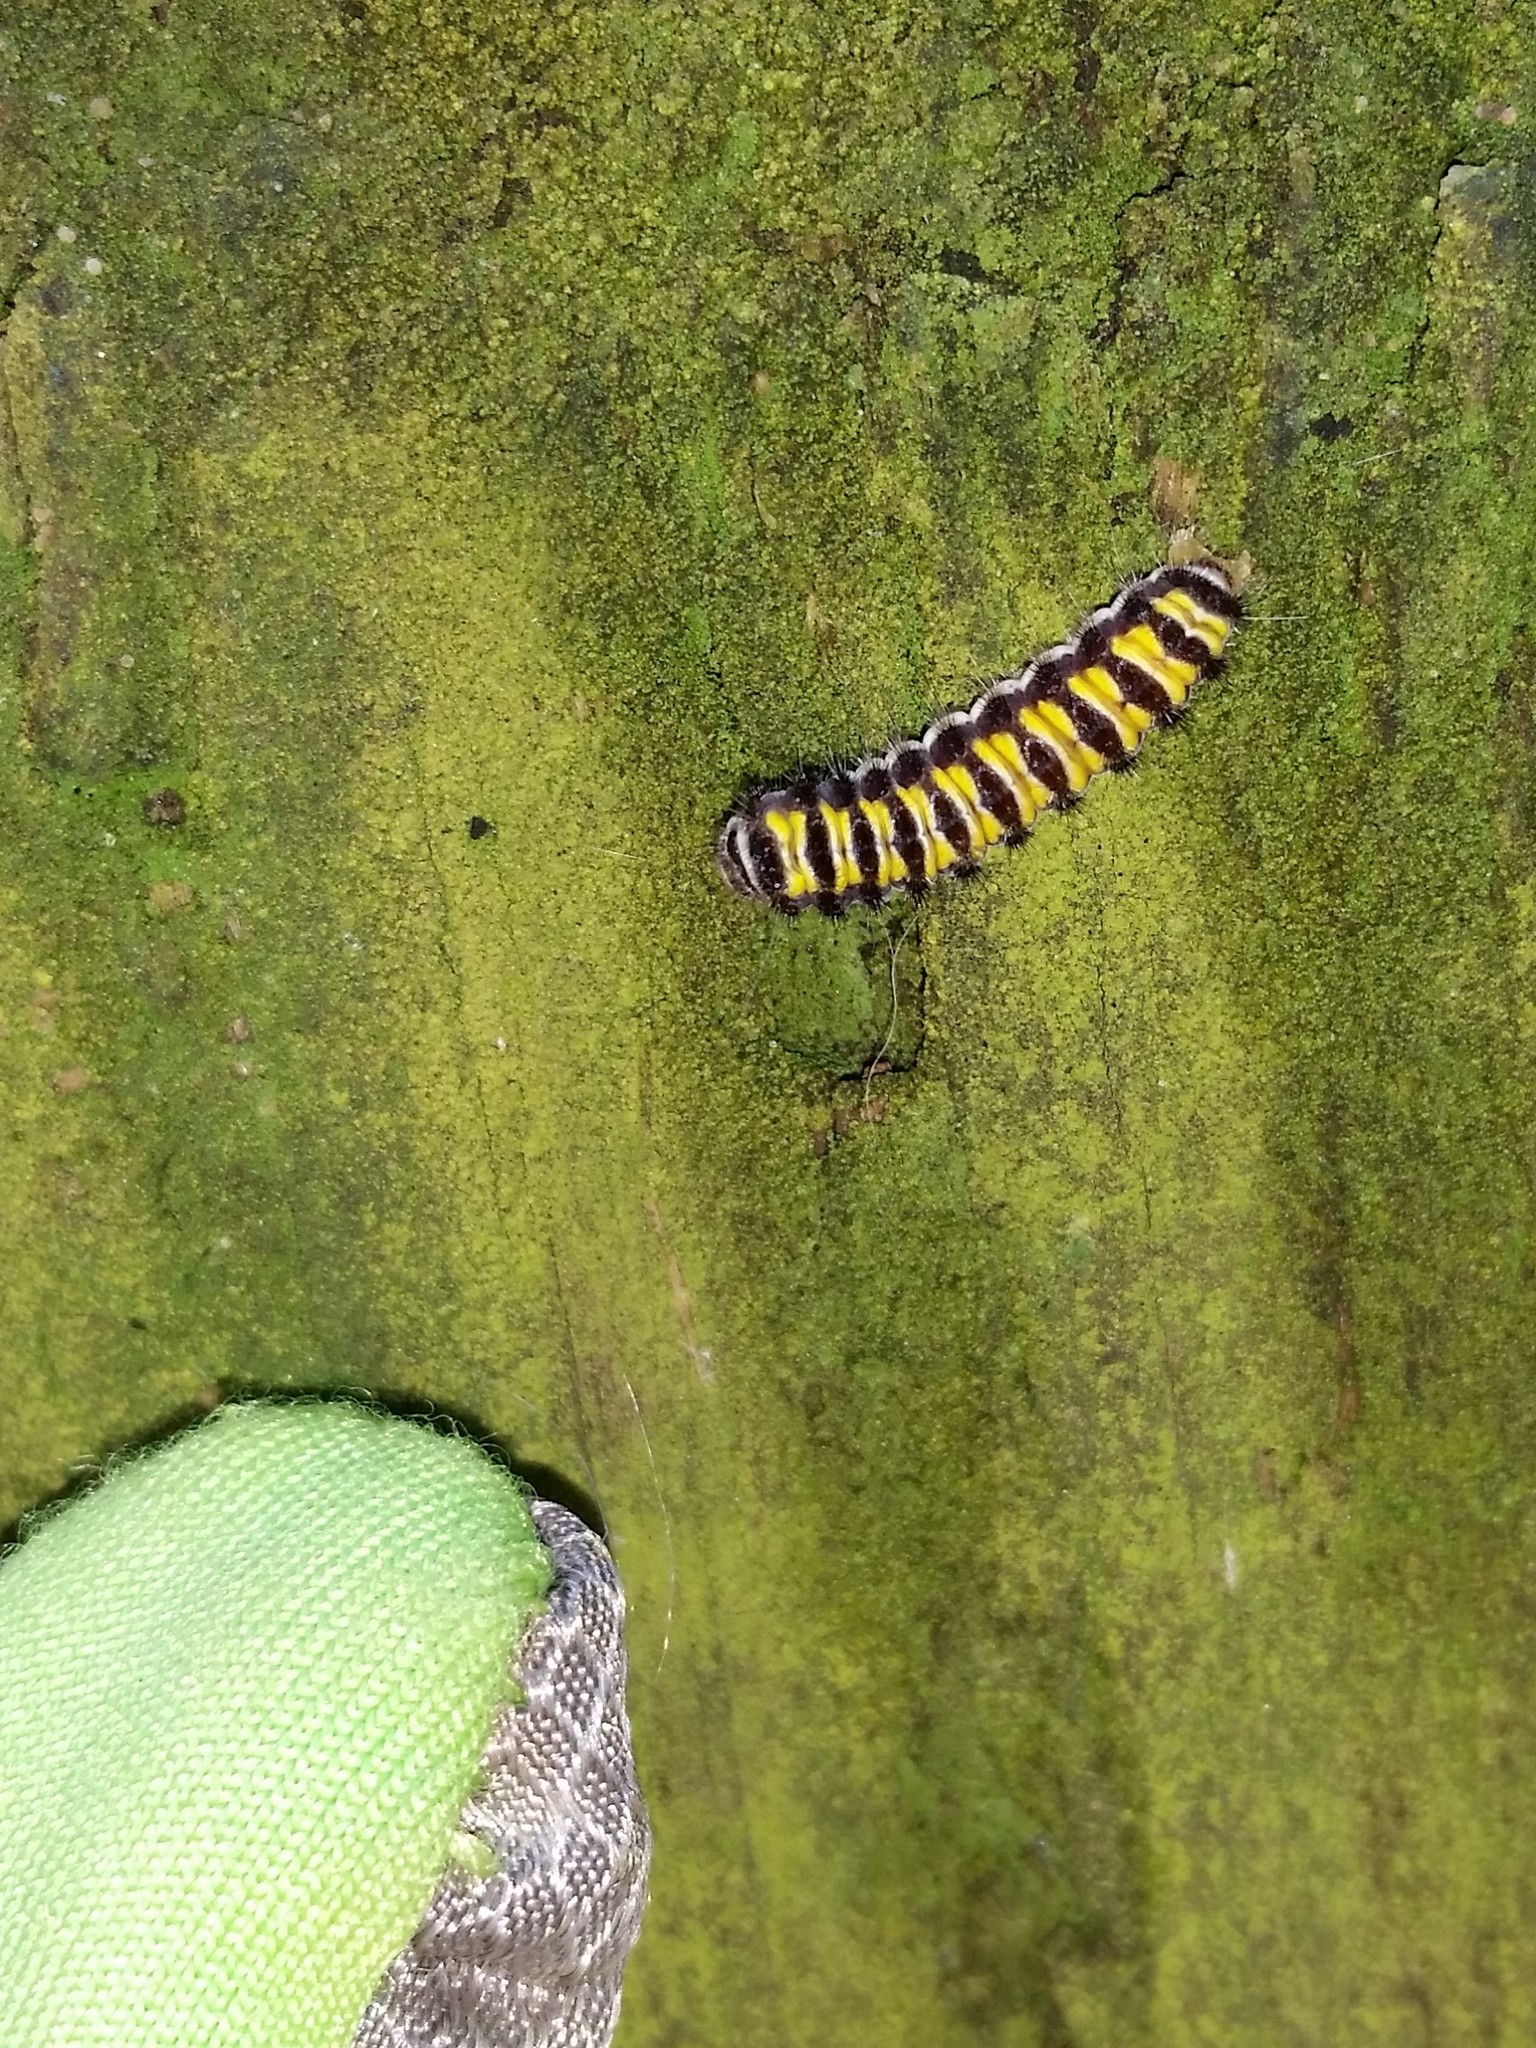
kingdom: Animalia
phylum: Arthropoda
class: Insecta
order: Lepidoptera
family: Zygaenidae
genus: Harrisina
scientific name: Harrisina americana
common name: Grapeleaf skeletonizer moth
